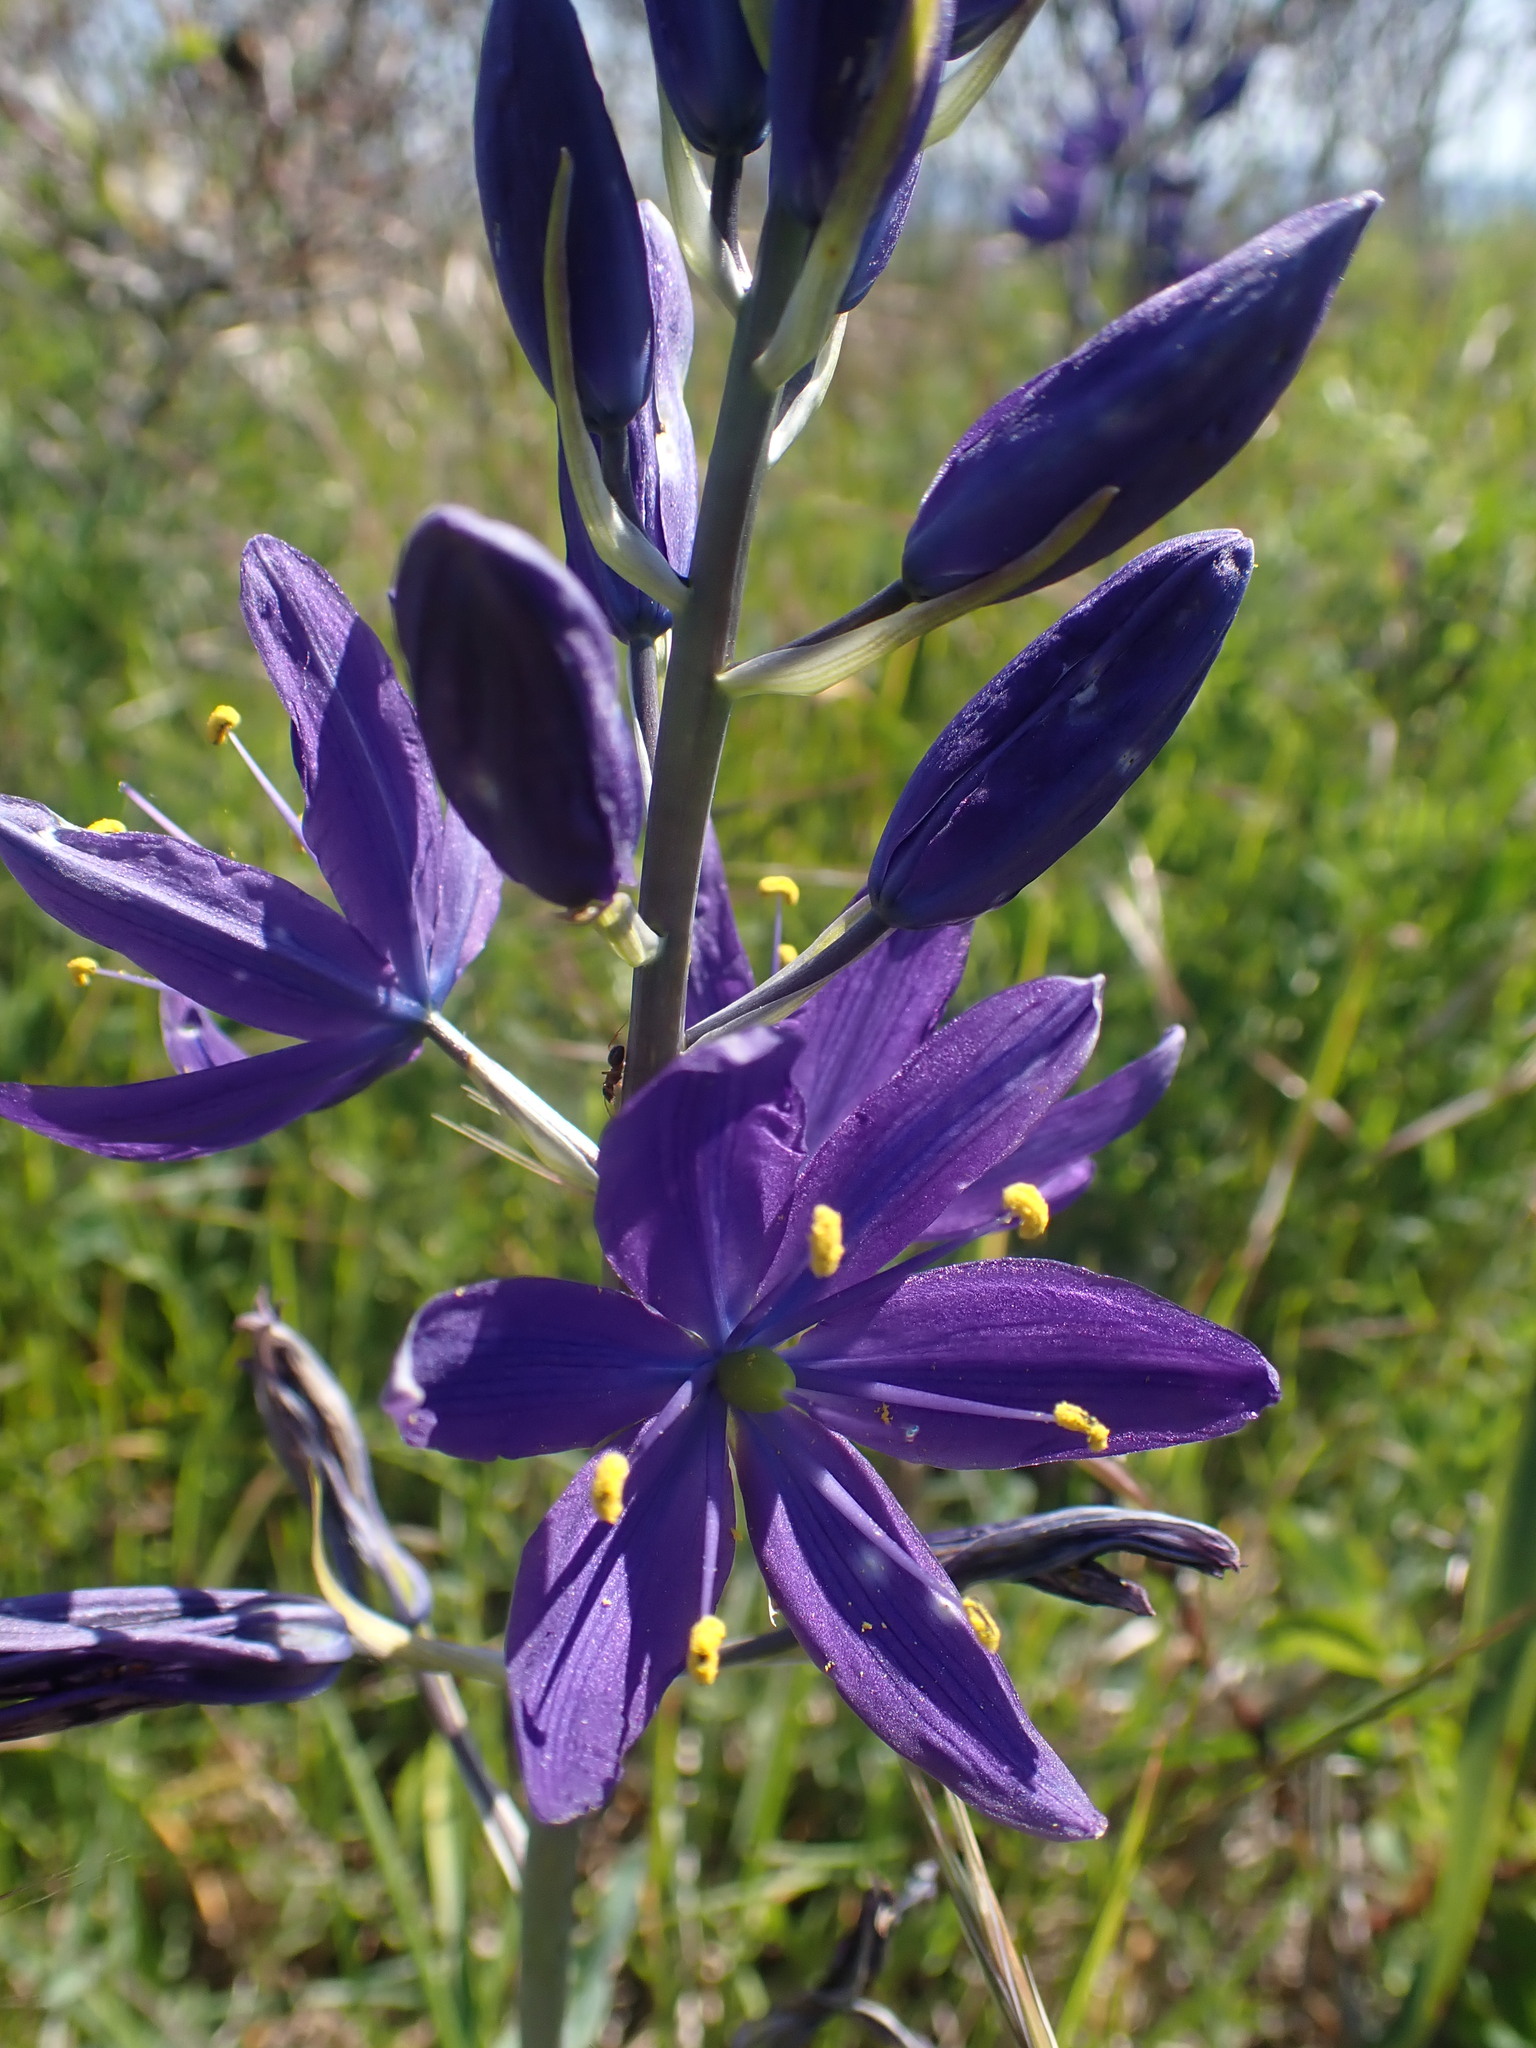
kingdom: Plantae
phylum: Tracheophyta
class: Liliopsida
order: Asparagales
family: Asparagaceae
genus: Camassia
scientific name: Camassia leichtlinii
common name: Leichtlin's camas
